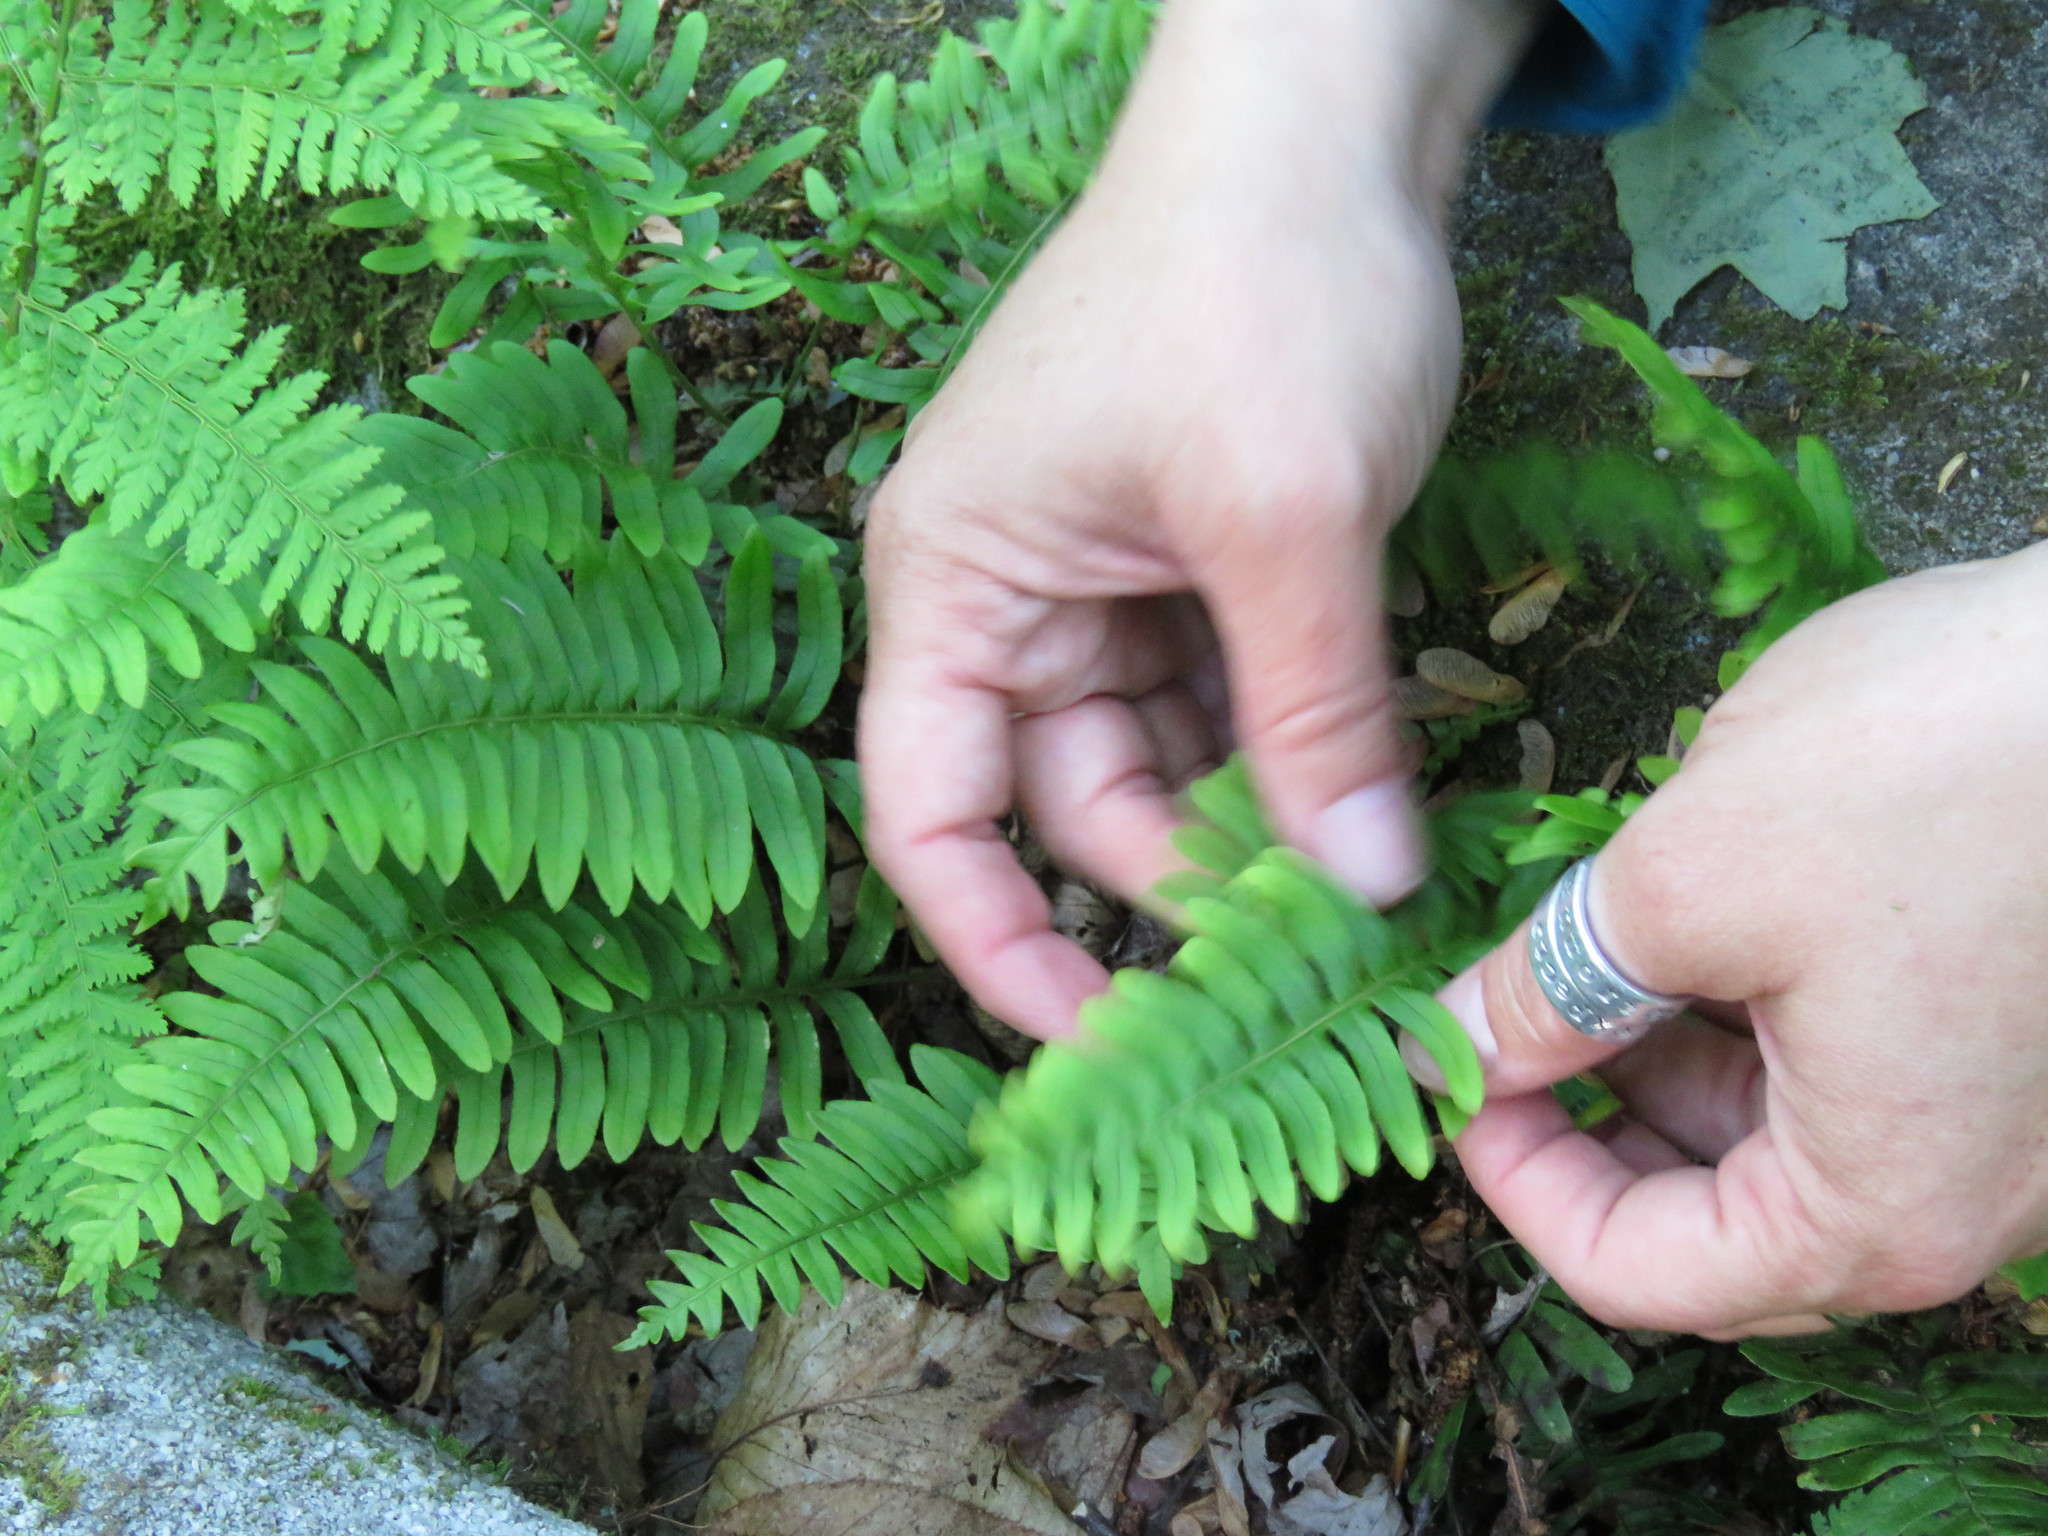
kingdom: Plantae
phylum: Tracheophyta
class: Polypodiopsida
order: Polypodiales
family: Polypodiaceae
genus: Polypodium
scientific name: Polypodium virginianum
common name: American wall fern
